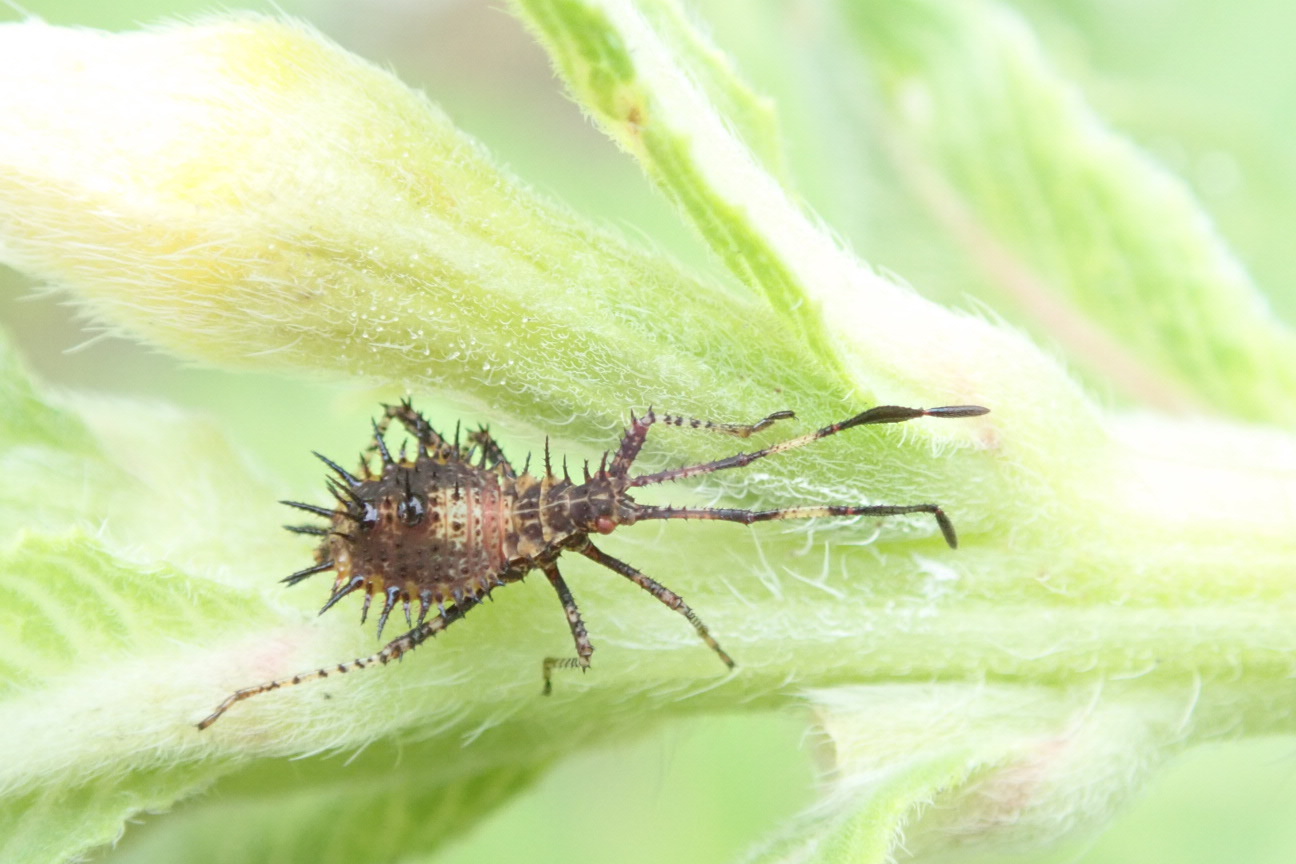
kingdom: Animalia
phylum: Arthropoda
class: Insecta
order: Hemiptera
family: Coreidae
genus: Euthochtha
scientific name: Euthochtha galeator
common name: Helmeted squash bug
